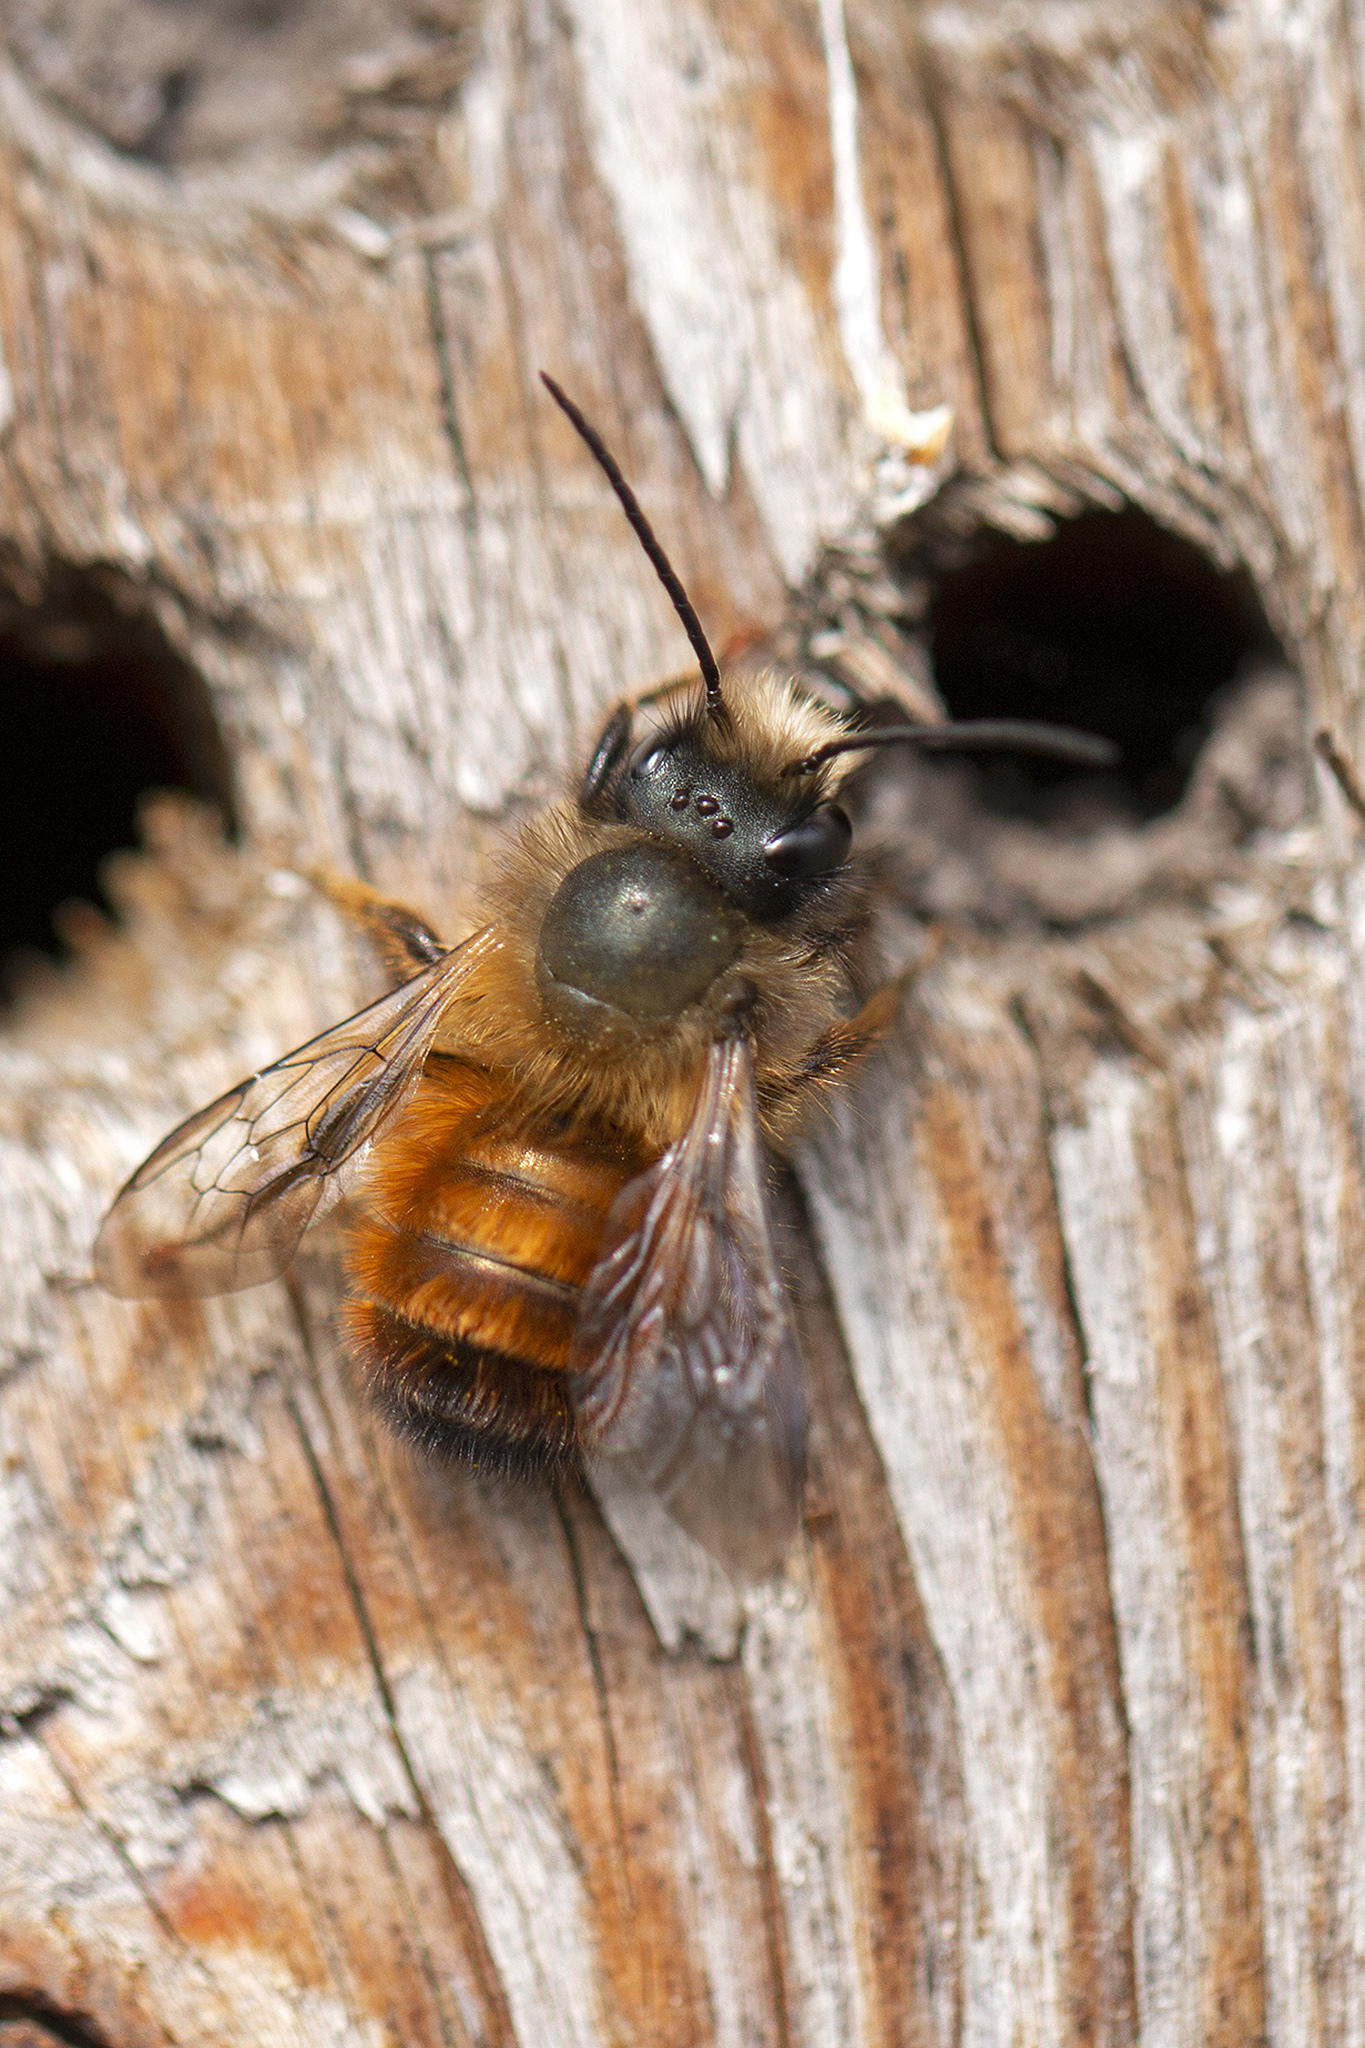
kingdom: Animalia
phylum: Arthropoda
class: Insecta
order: Hymenoptera
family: Megachilidae
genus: Osmia
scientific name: Osmia bicornis
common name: Red mason bee
